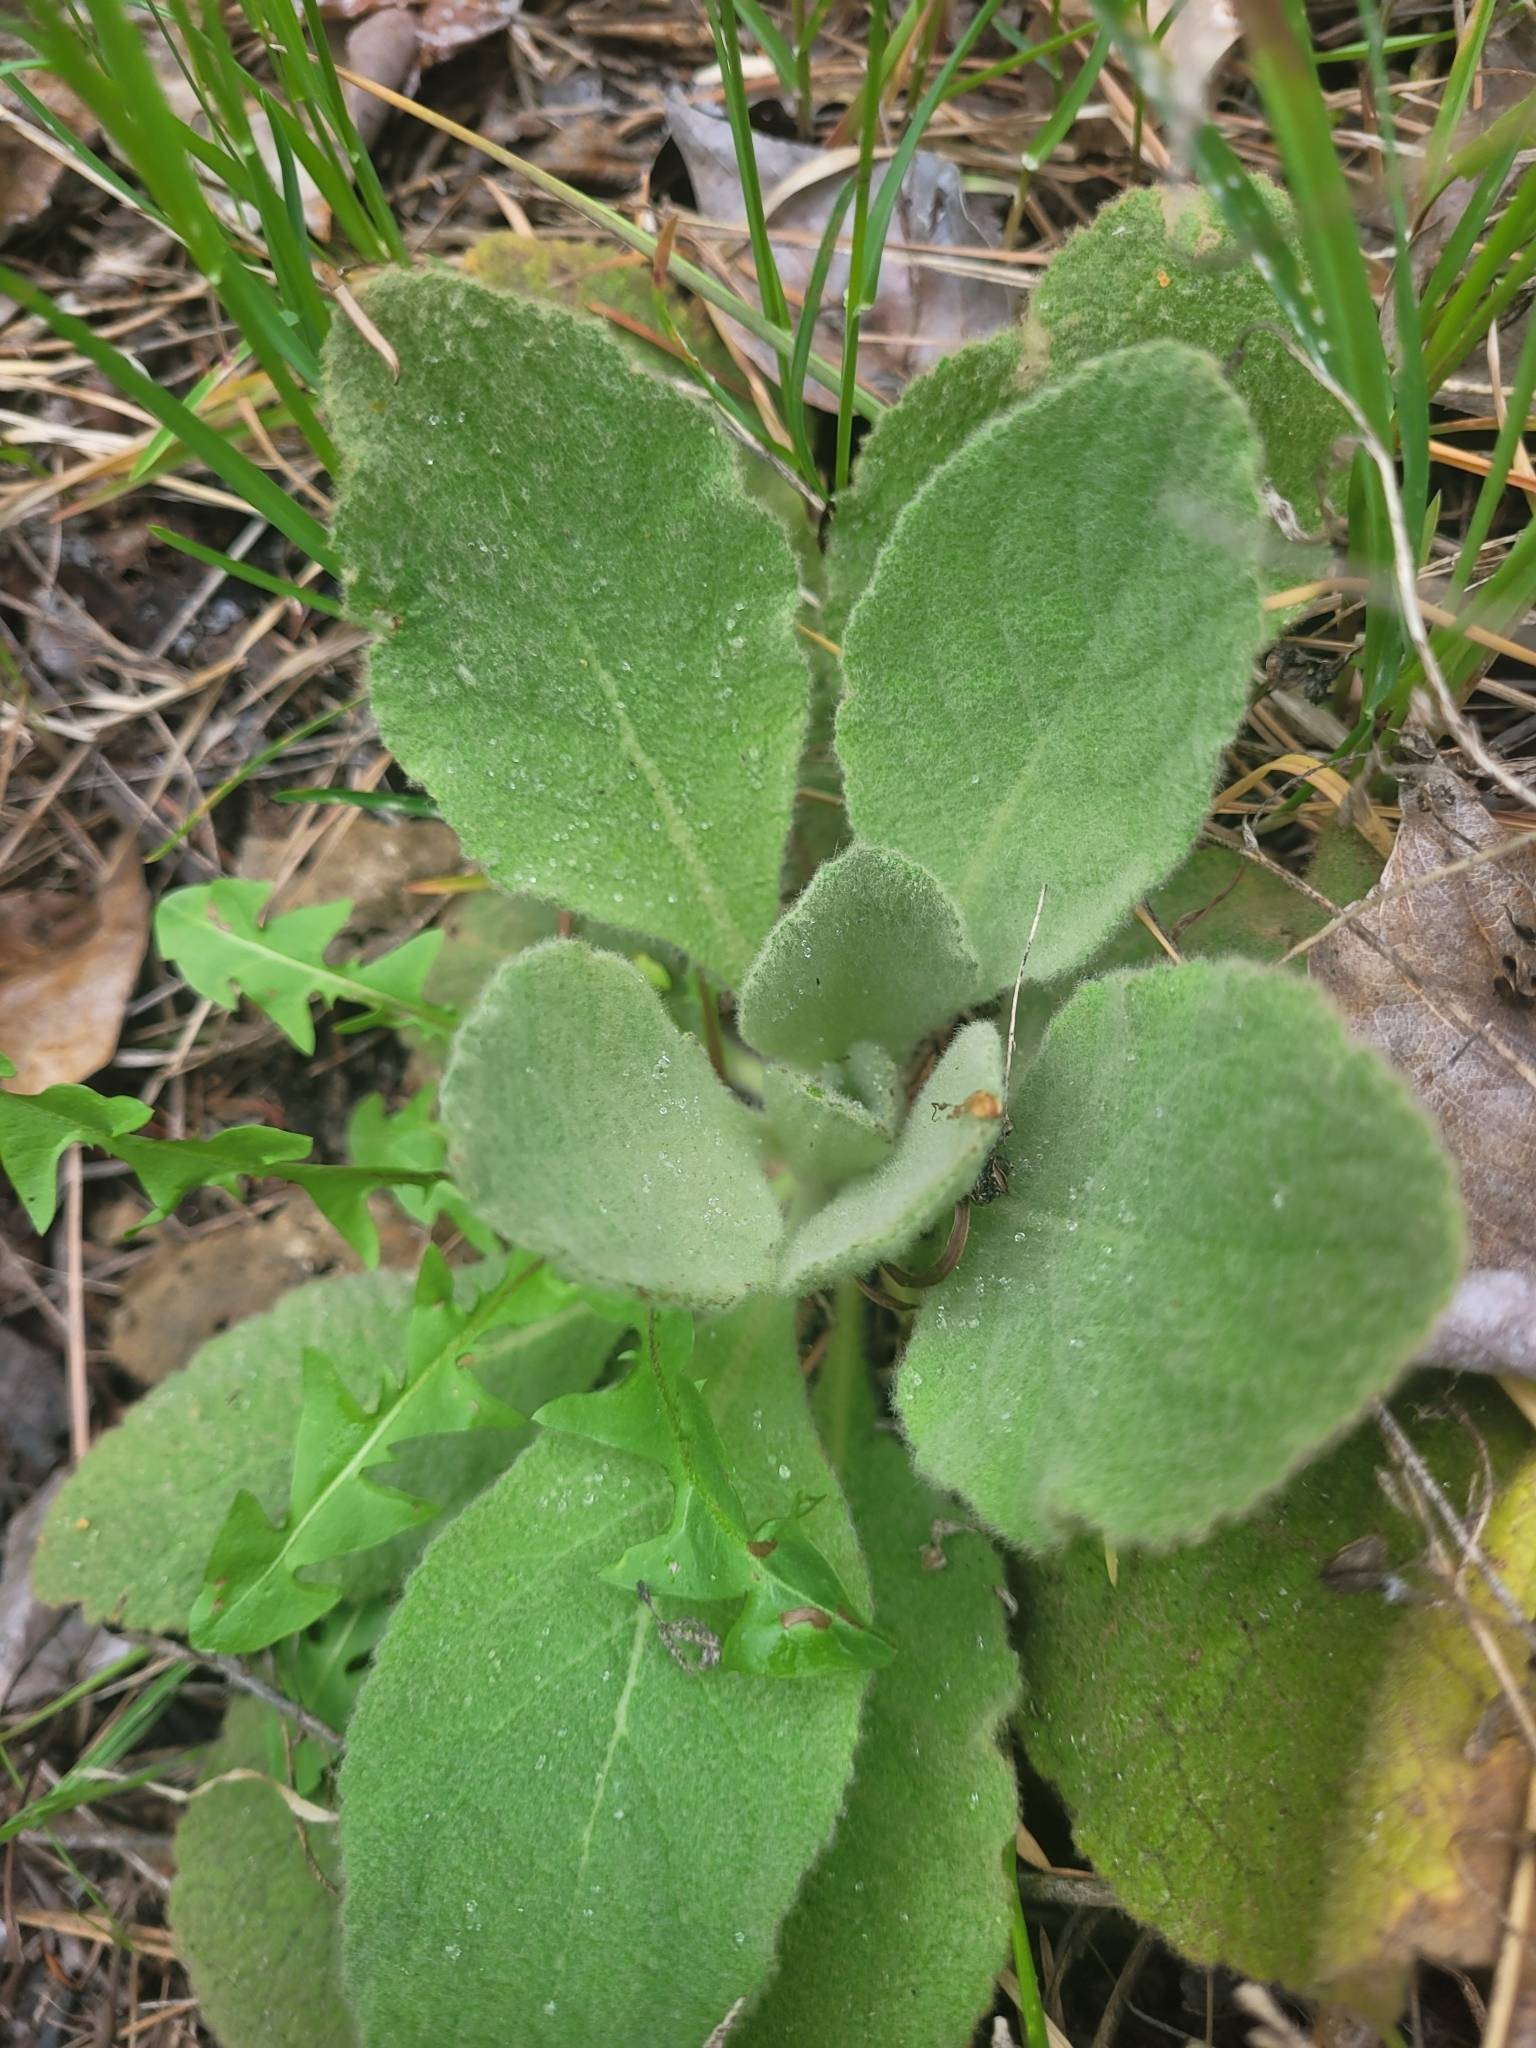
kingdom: Plantae
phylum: Tracheophyta
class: Magnoliopsida
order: Lamiales
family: Scrophulariaceae
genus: Verbascum
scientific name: Verbascum thapsus
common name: Common mullein
